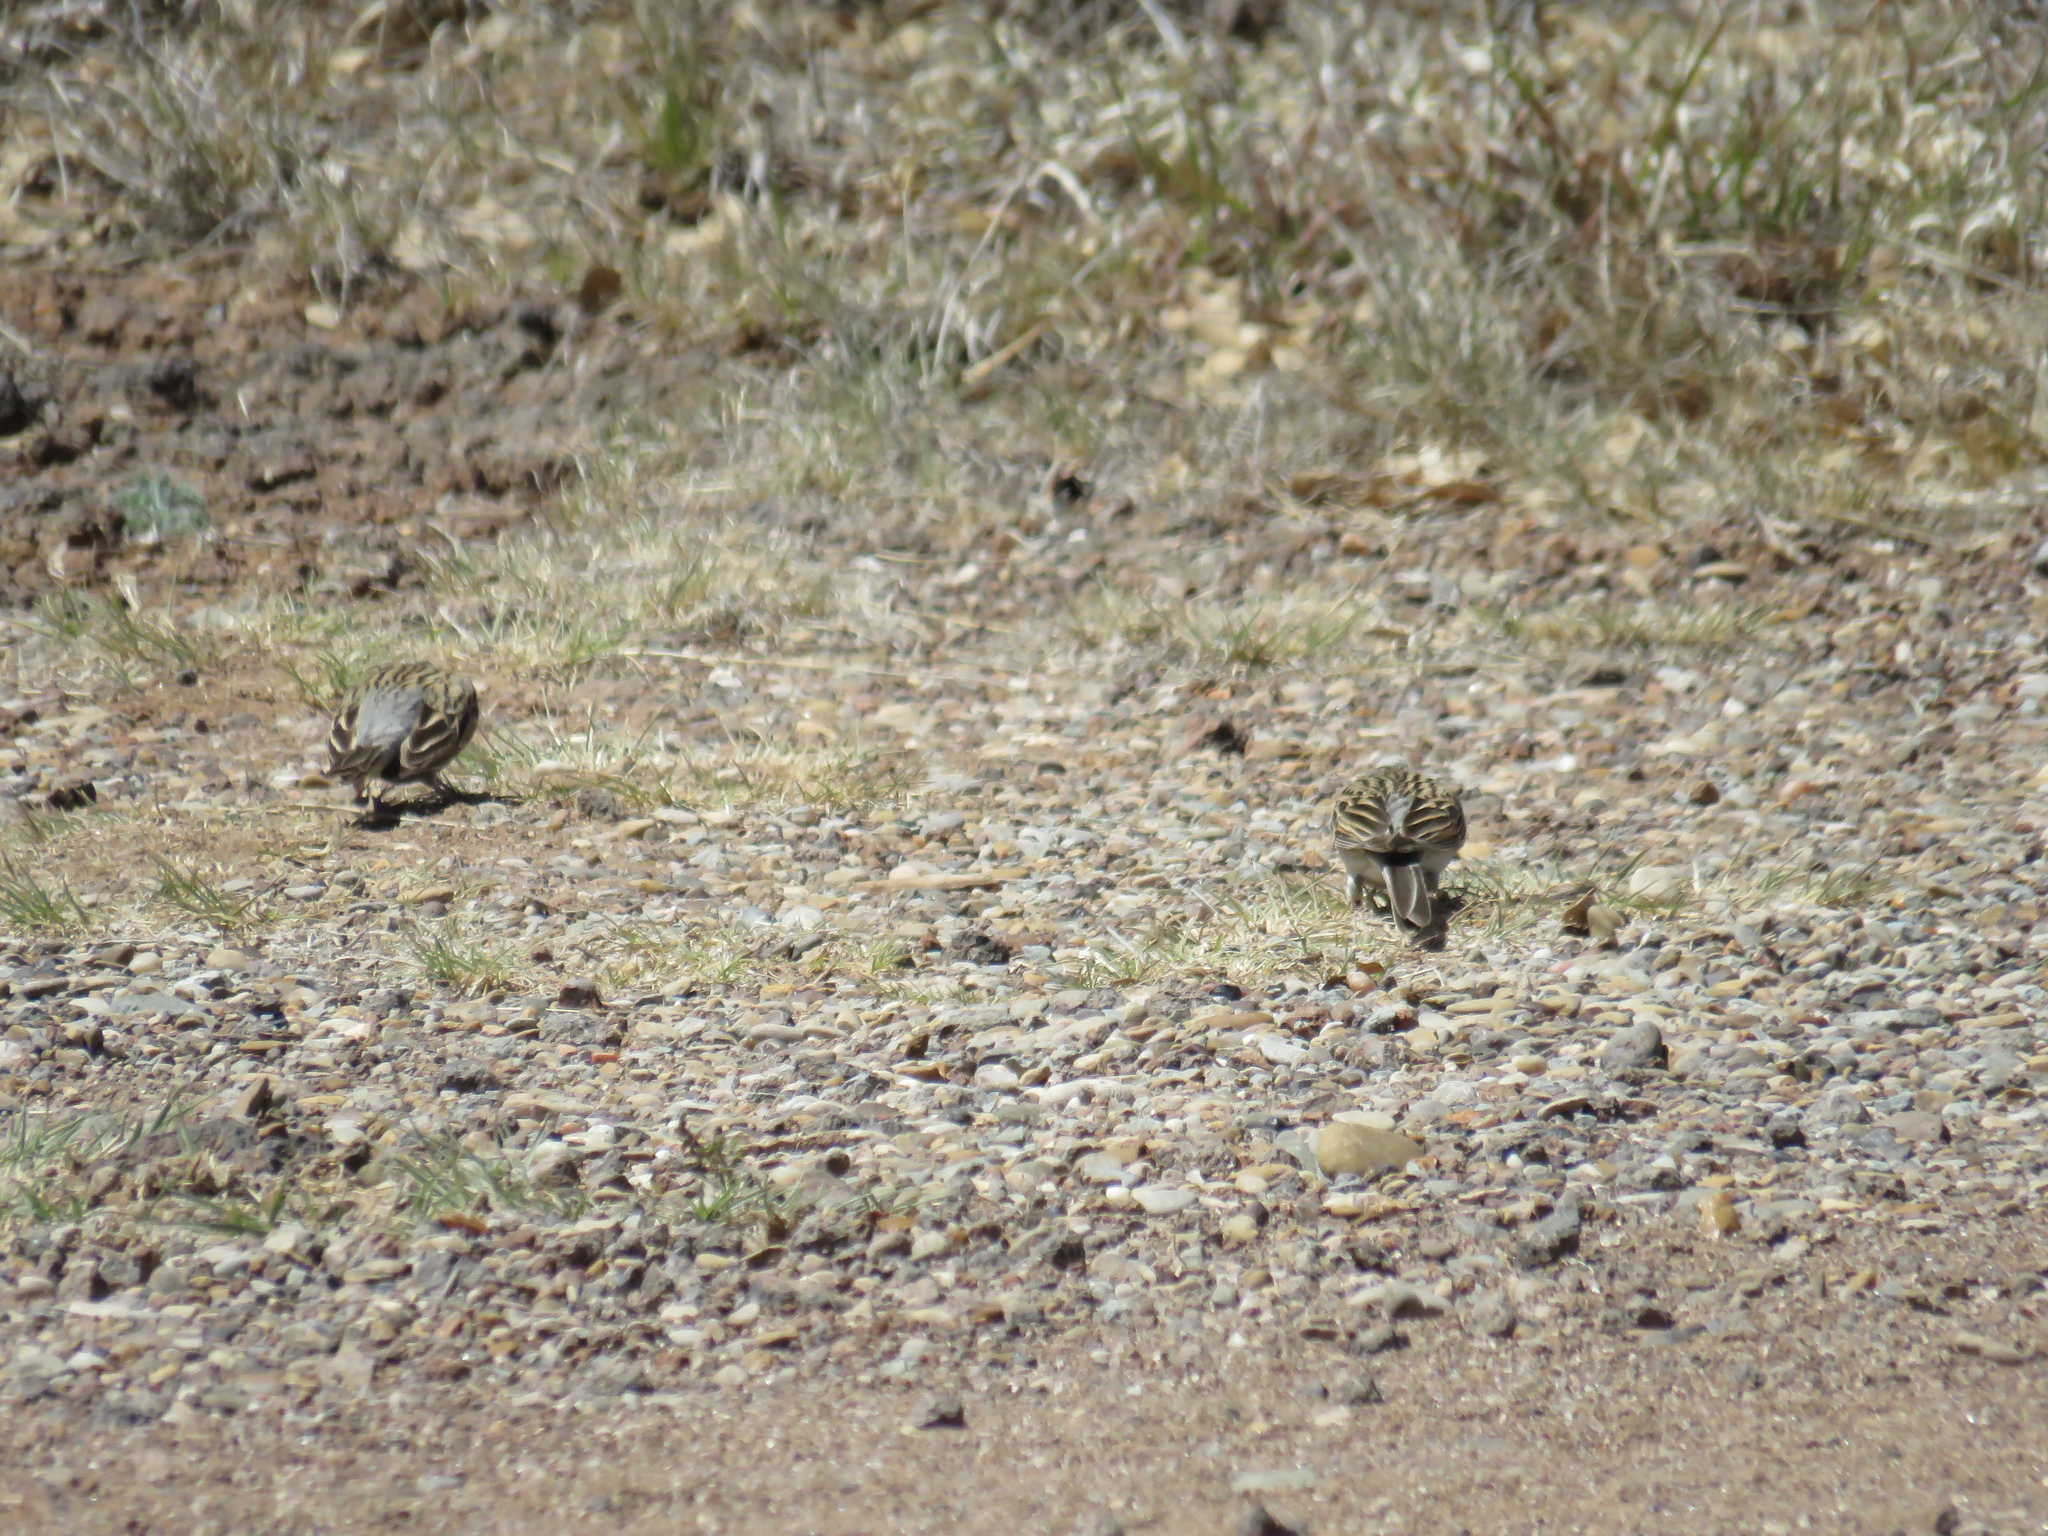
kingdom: Animalia
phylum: Chordata
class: Aves
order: Passeriformes
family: Passerellidae
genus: Spizella
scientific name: Spizella passerina
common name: Chipping sparrow
